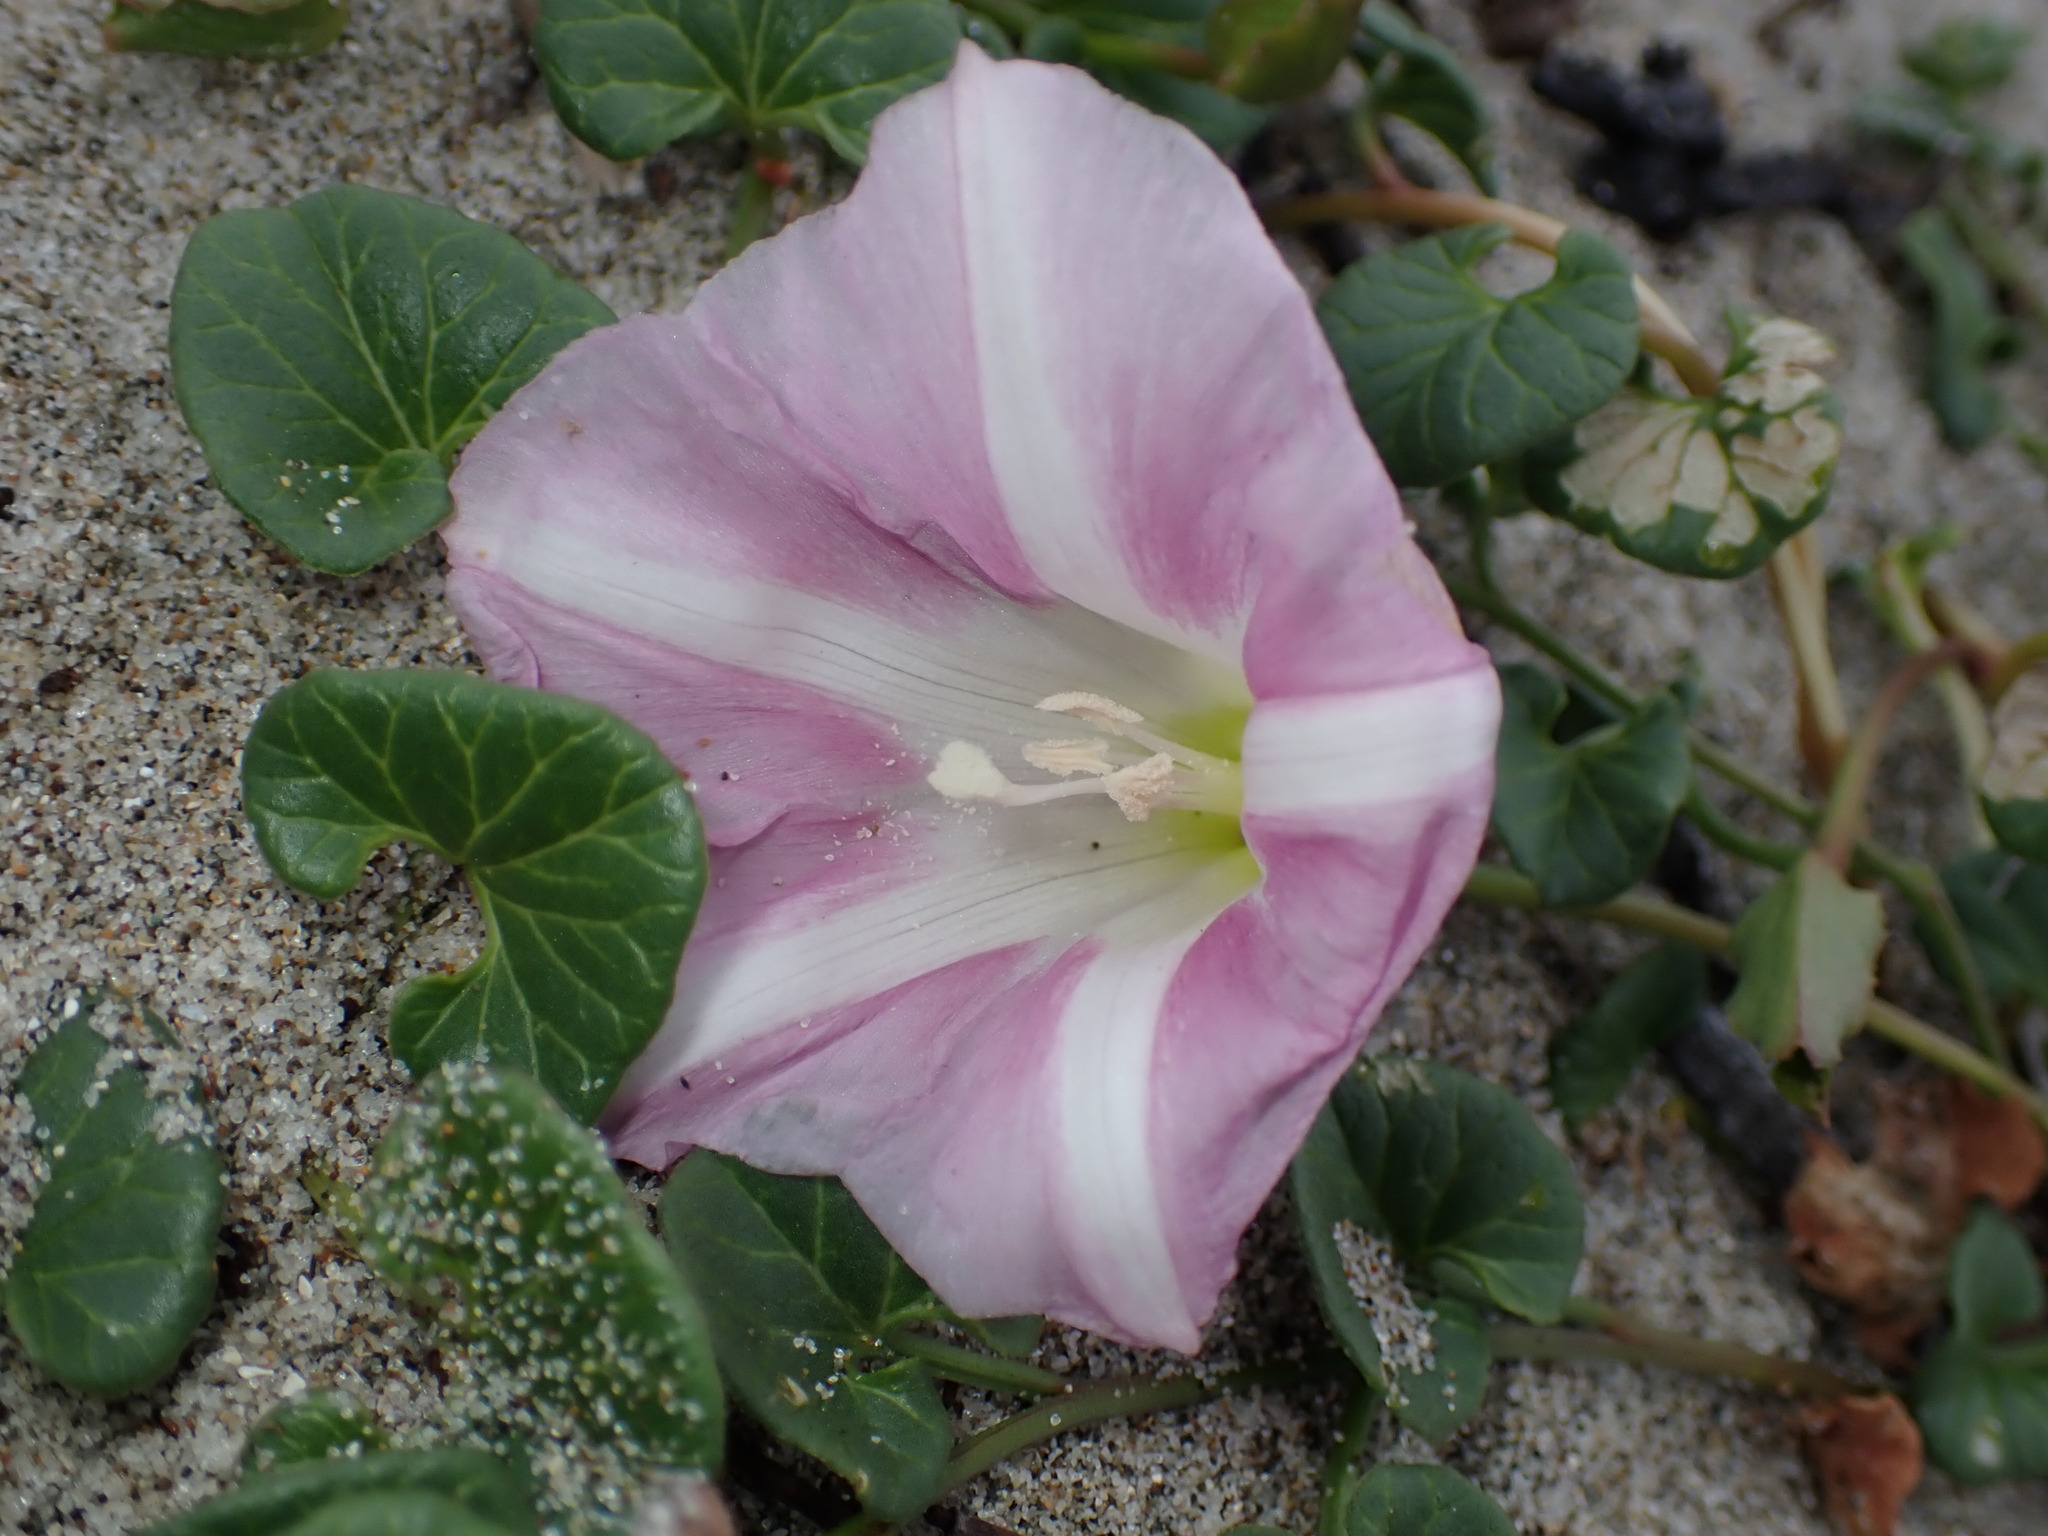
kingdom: Plantae
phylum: Tracheophyta
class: Magnoliopsida
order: Solanales
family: Convolvulaceae
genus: Calystegia
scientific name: Calystegia soldanella
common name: Sea bindweed
